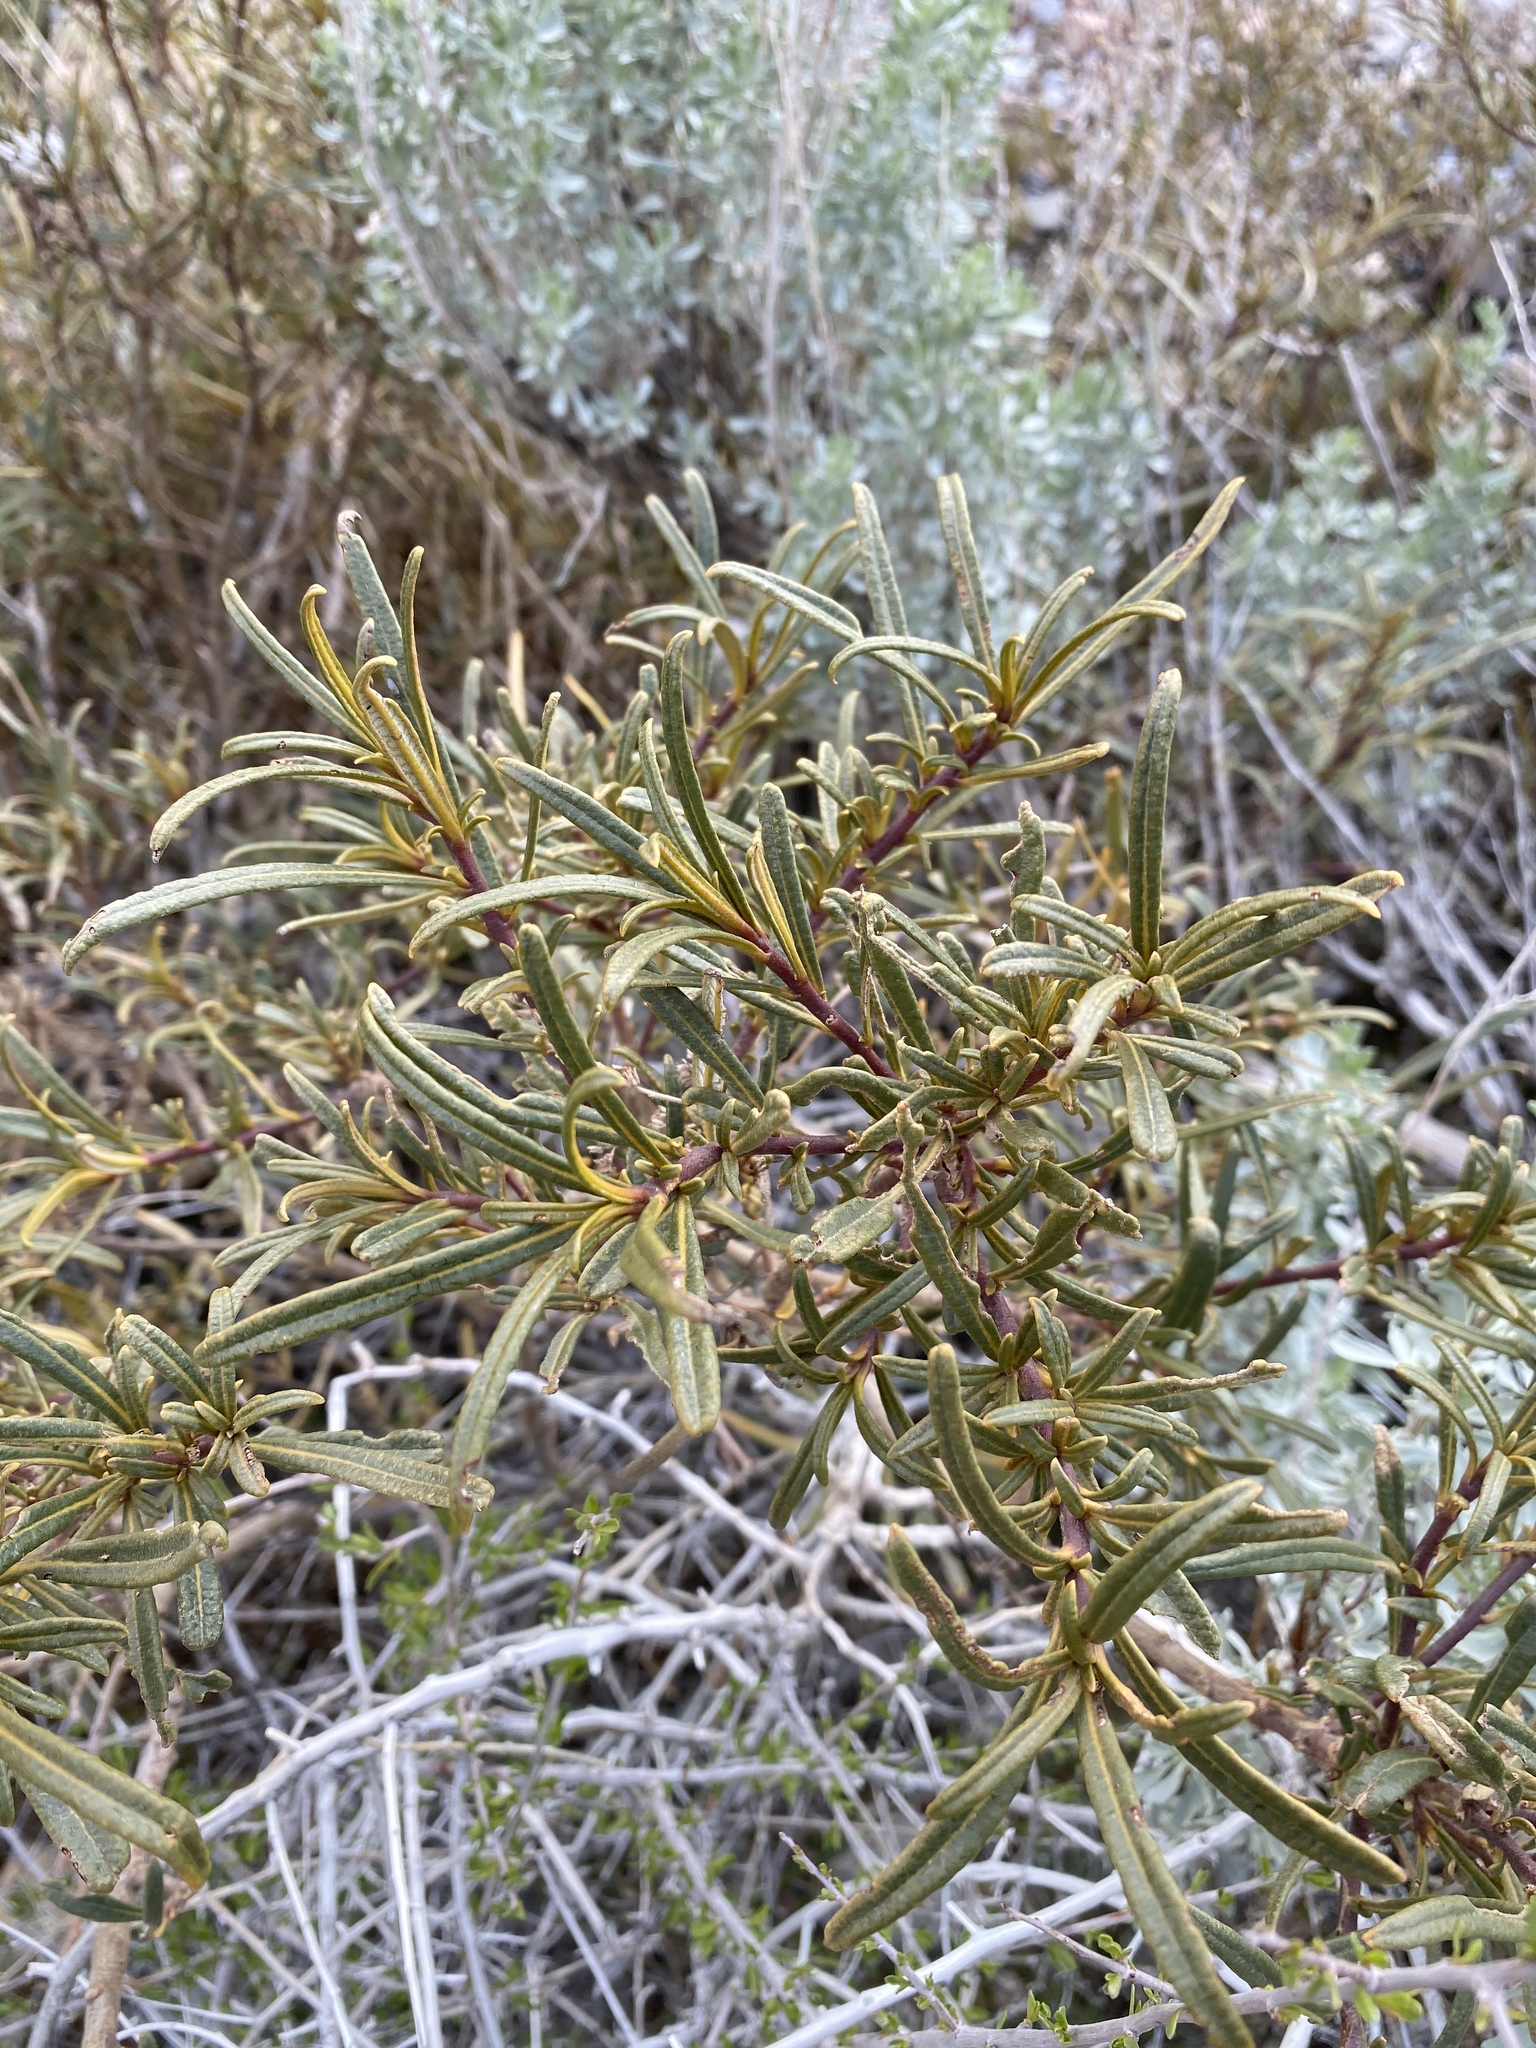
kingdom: Plantae
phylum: Tracheophyta
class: Magnoliopsida
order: Boraginales
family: Namaceae
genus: Eriodictyon
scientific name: Eriodictyon angustifolium
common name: Narrow-leaf yerba santa
